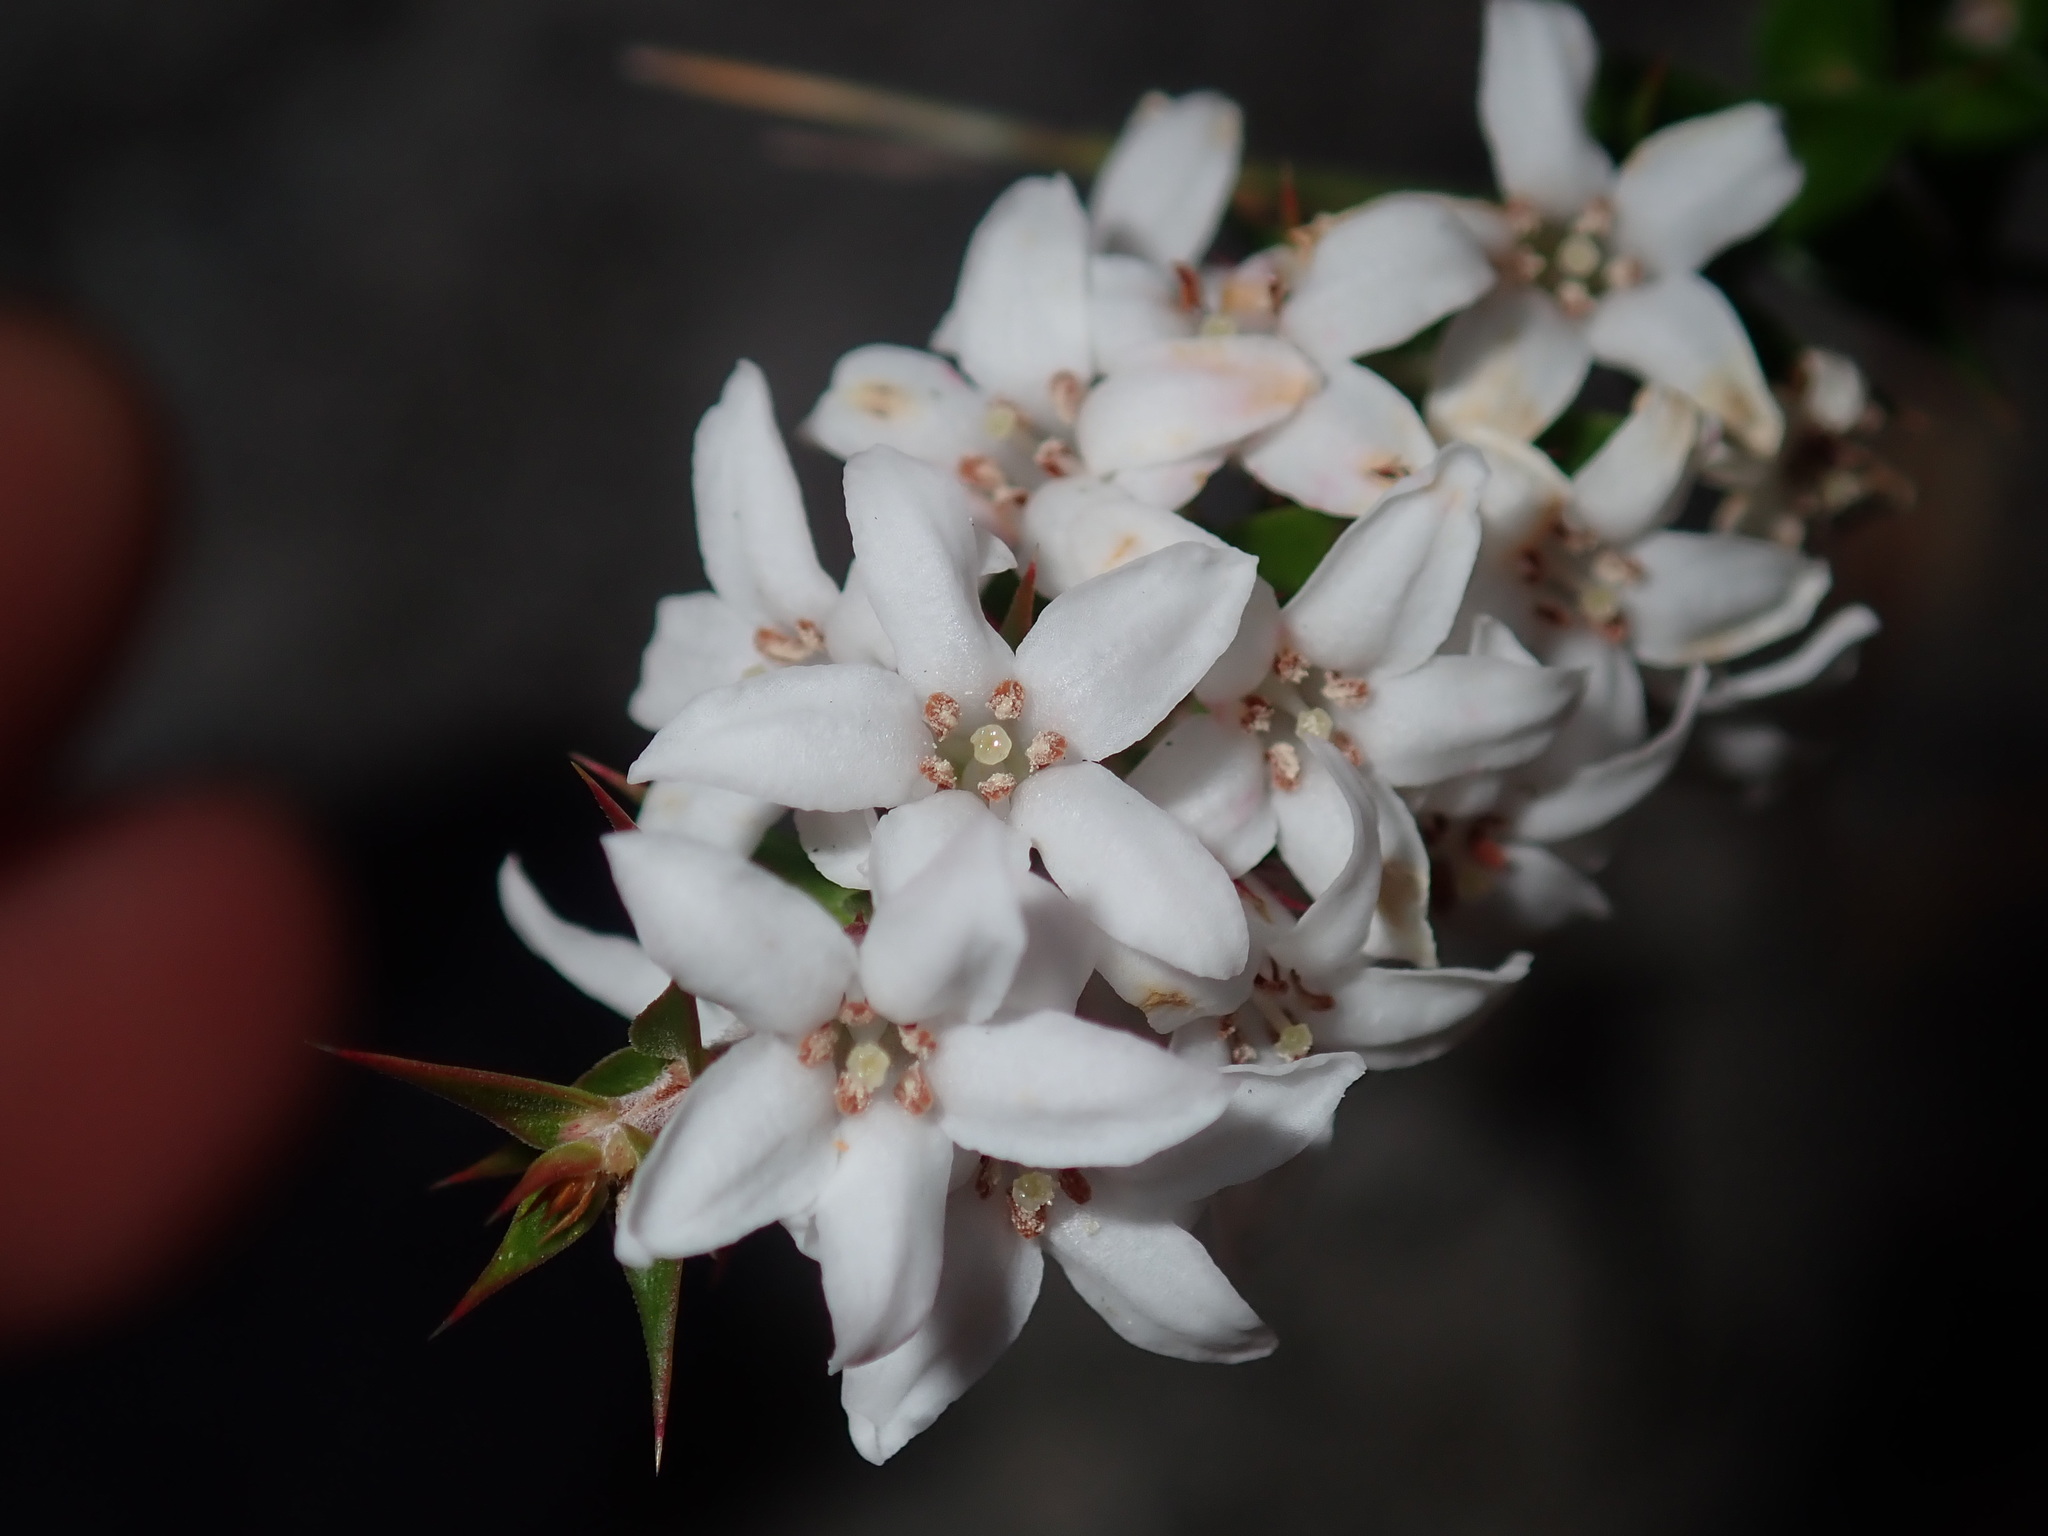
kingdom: Plantae
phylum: Tracheophyta
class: Magnoliopsida
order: Ericales
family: Ericaceae
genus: Epacris
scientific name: Epacris pulchella
